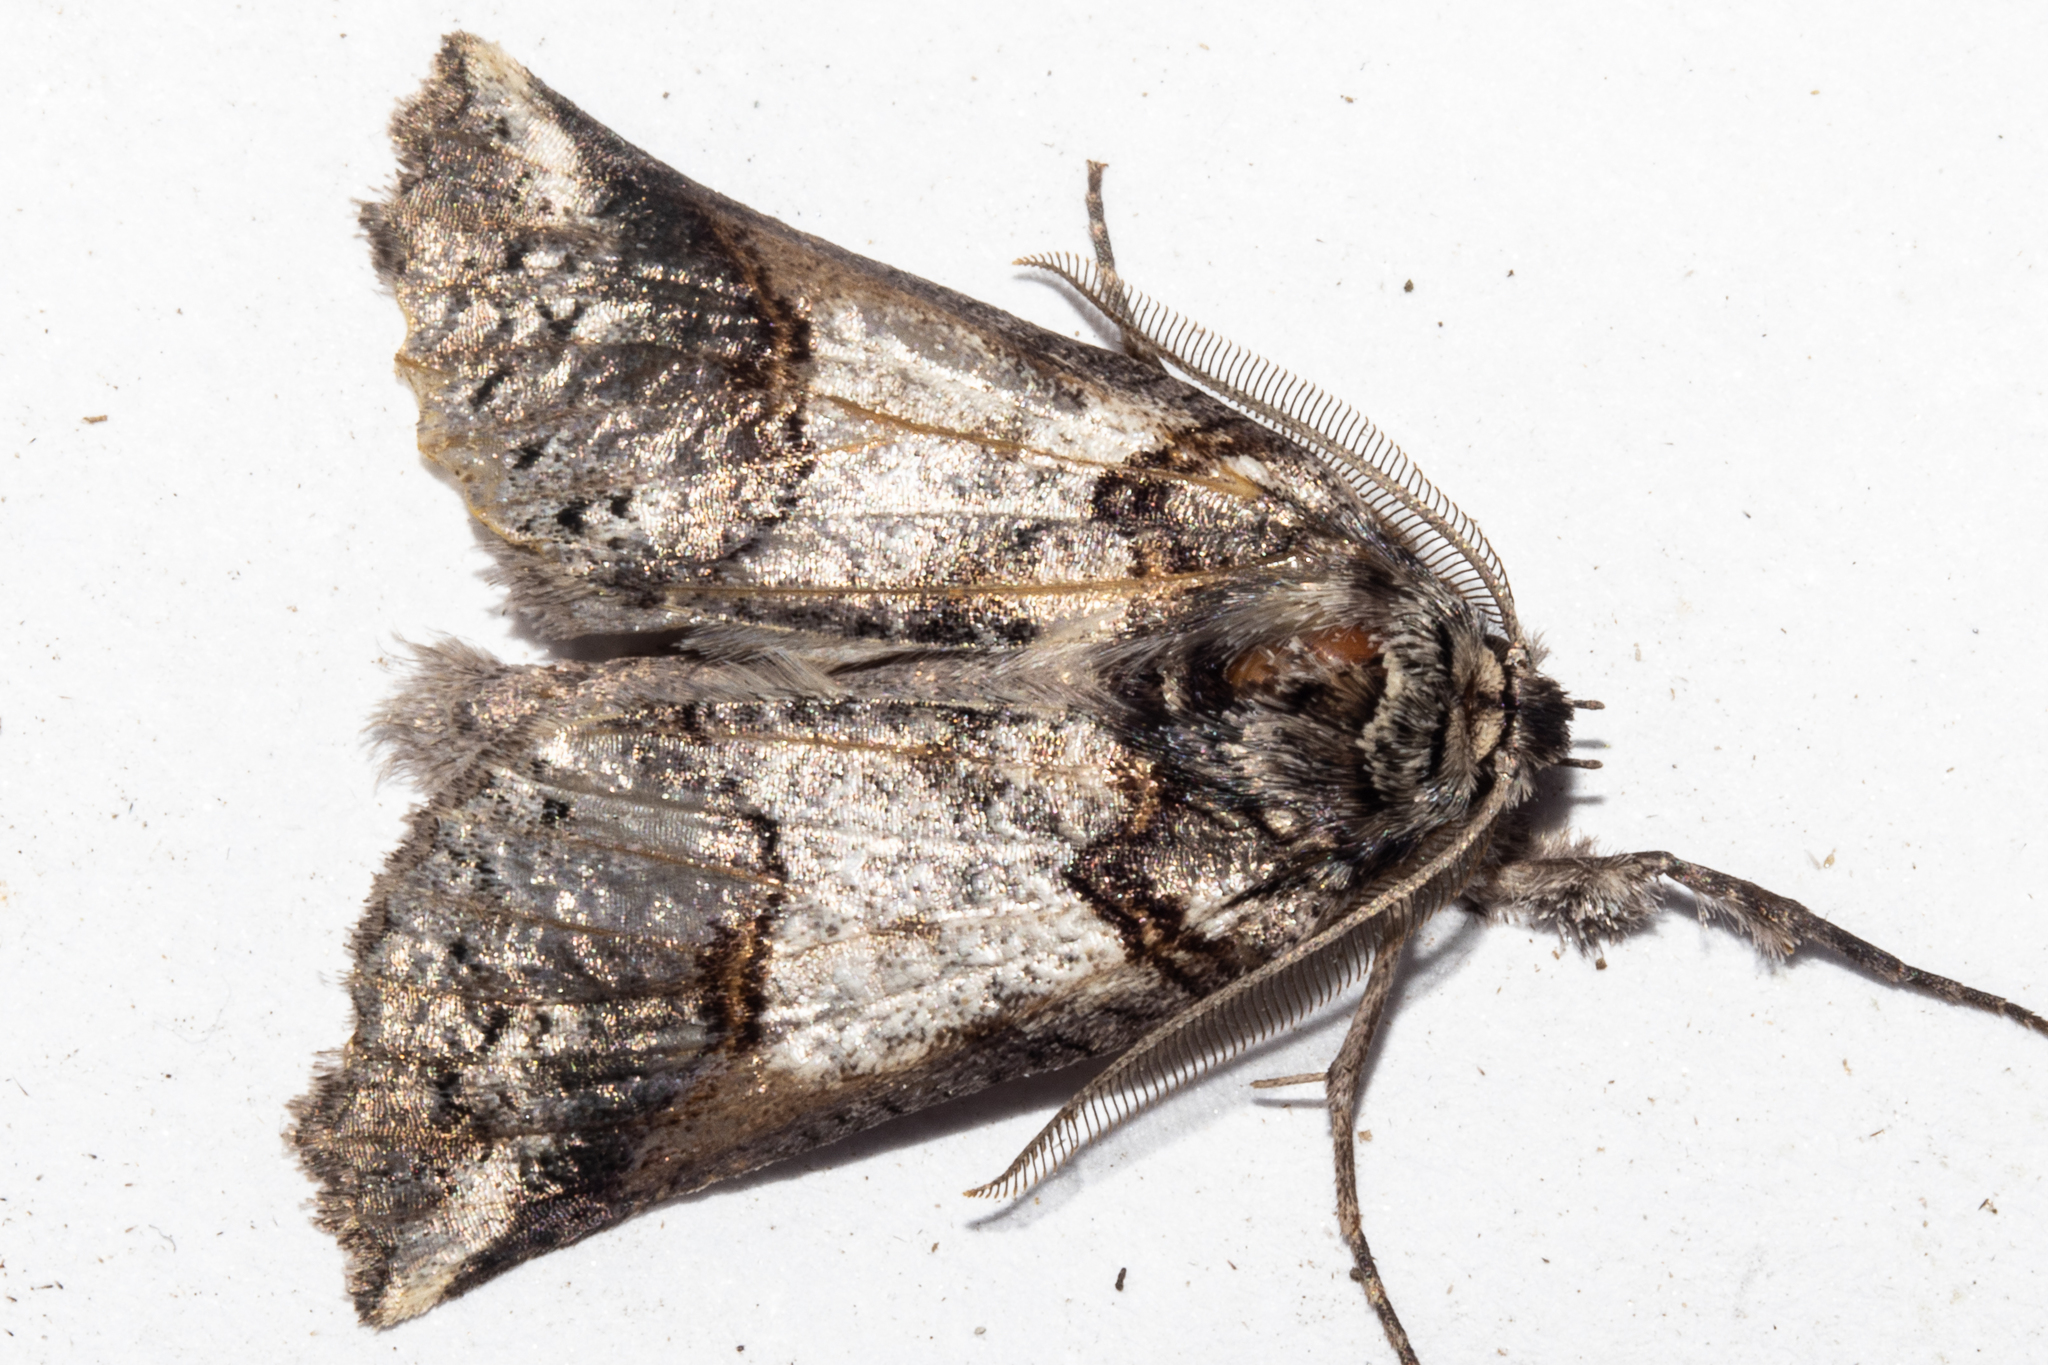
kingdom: Animalia
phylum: Arthropoda
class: Insecta
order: Lepidoptera
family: Geometridae
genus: Declana
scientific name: Declana
